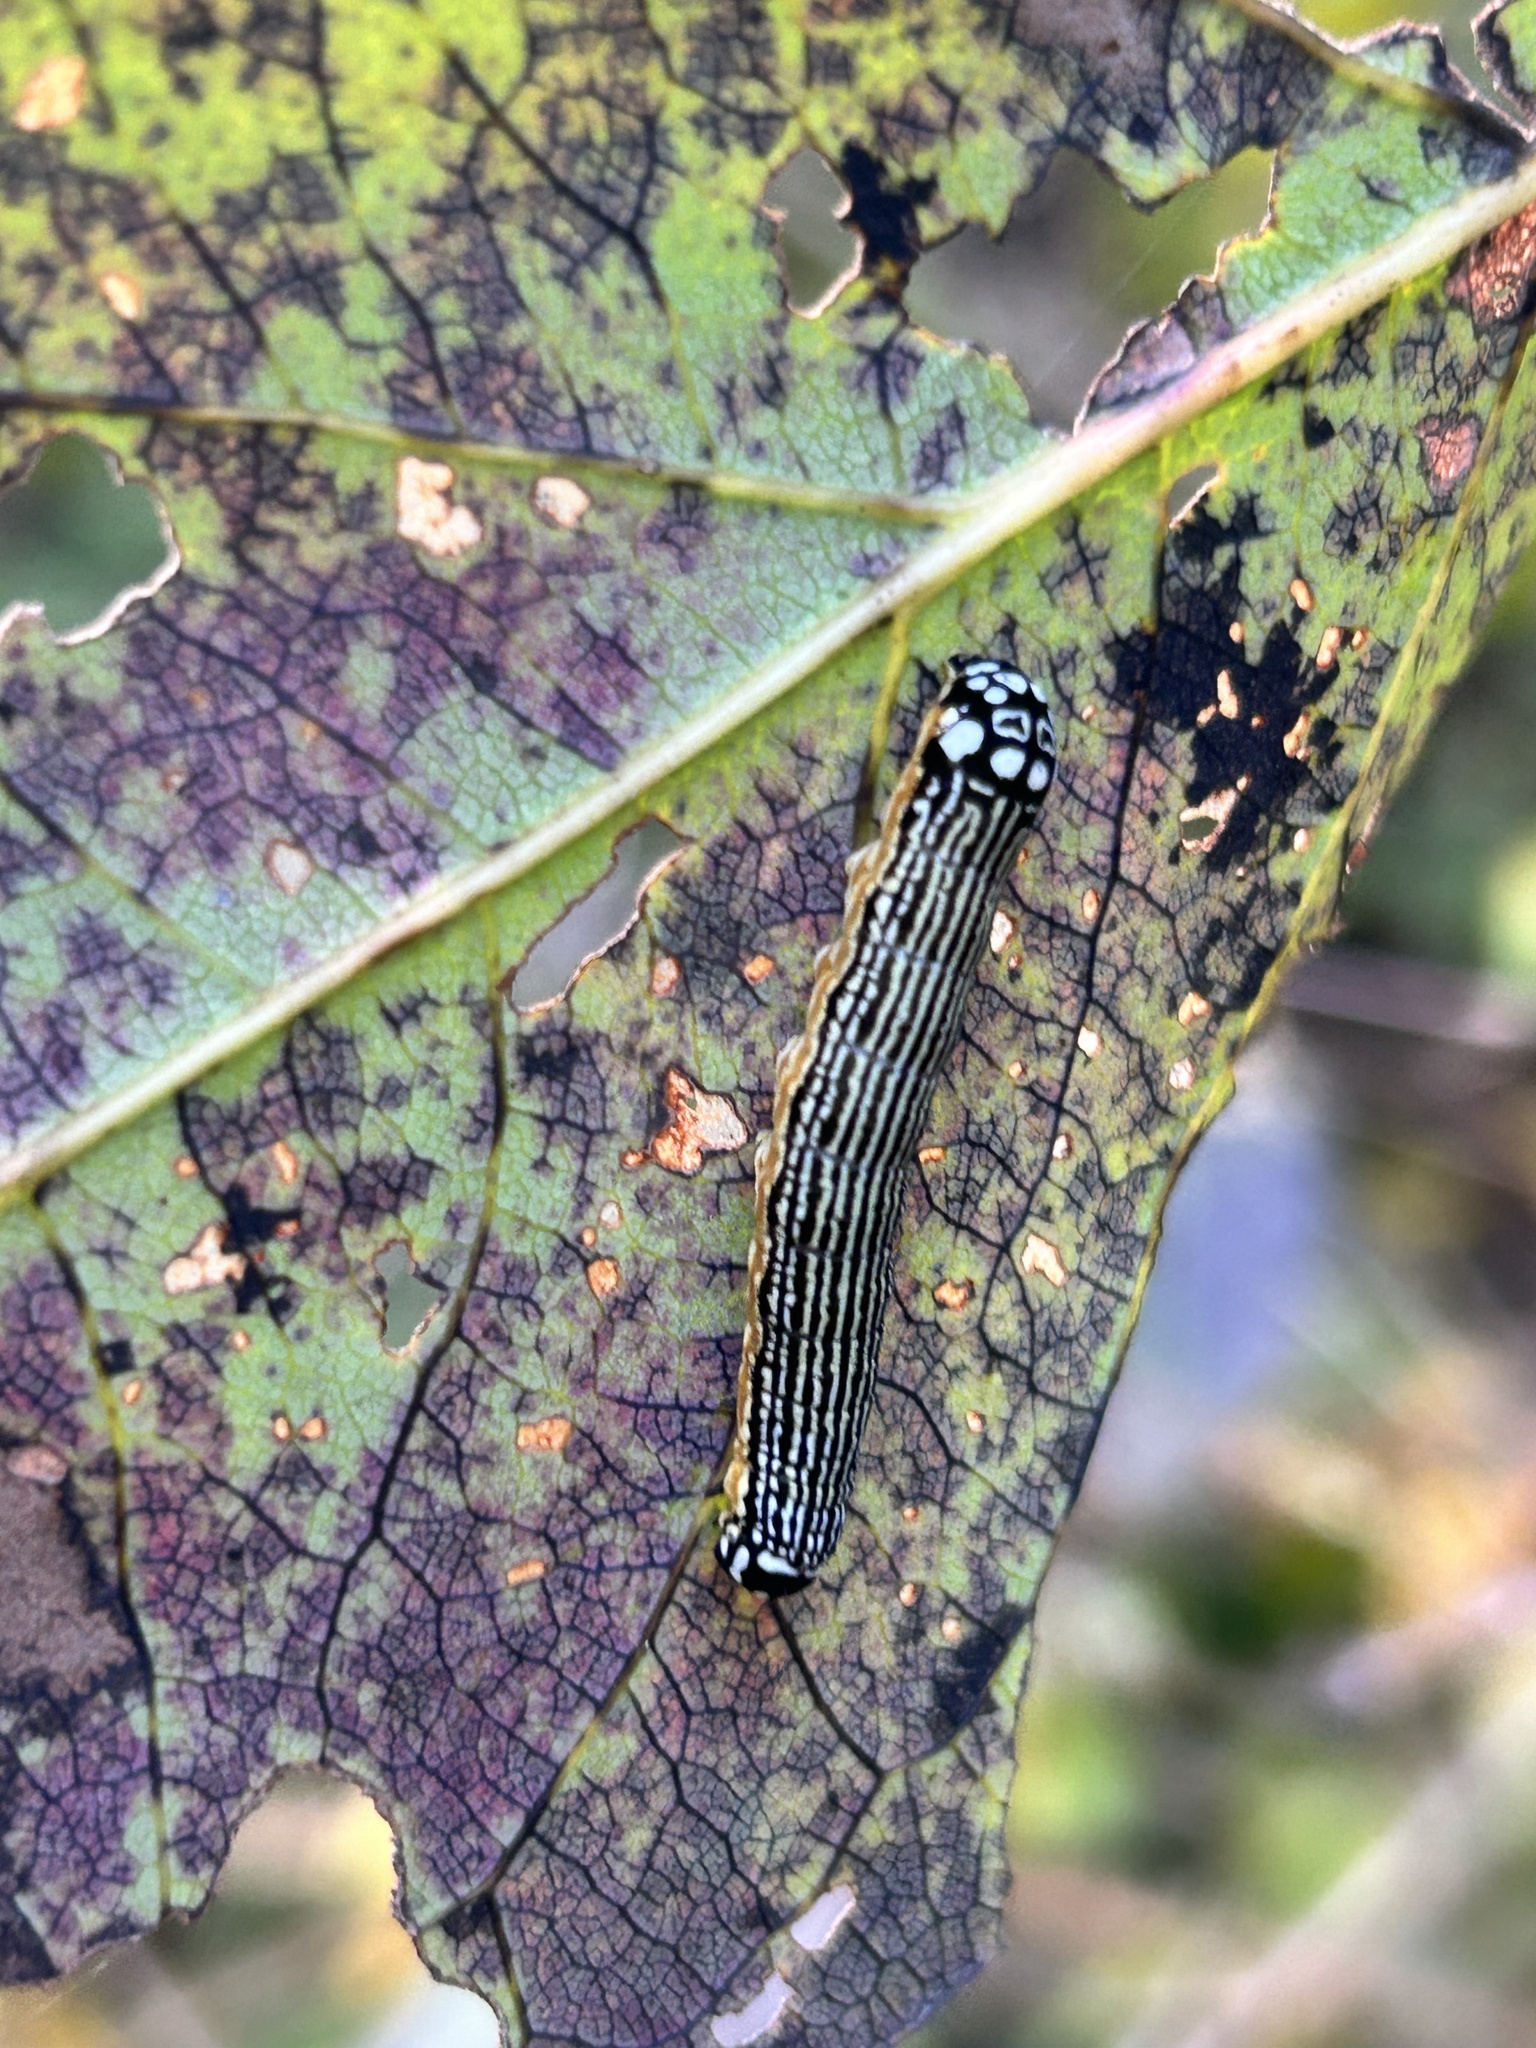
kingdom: Animalia
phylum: Arthropoda
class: Insecta
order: Lepidoptera
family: Noctuidae
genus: Phosphila
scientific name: Phosphila turbulenta
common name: Turbulent phosphila moth
